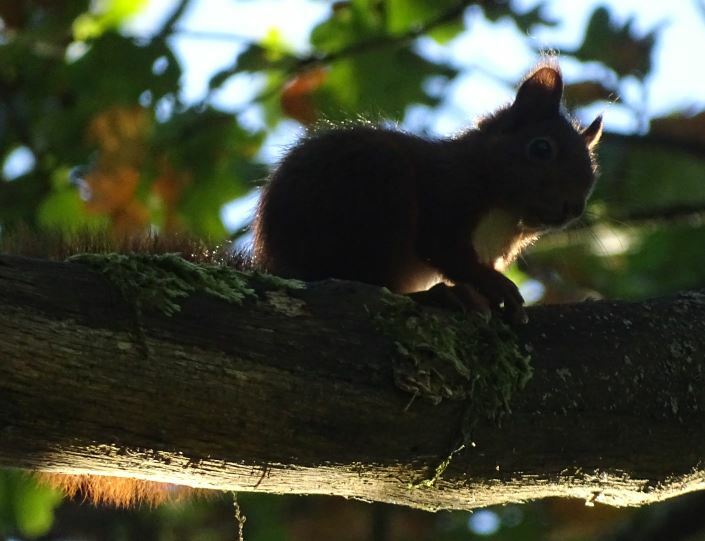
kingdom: Animalia
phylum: Chordata
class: Mammalia
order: Rodentia
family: Sciuridae
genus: Sciurus
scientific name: Sciurus vulgaris
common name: Eurasian red squirrel
